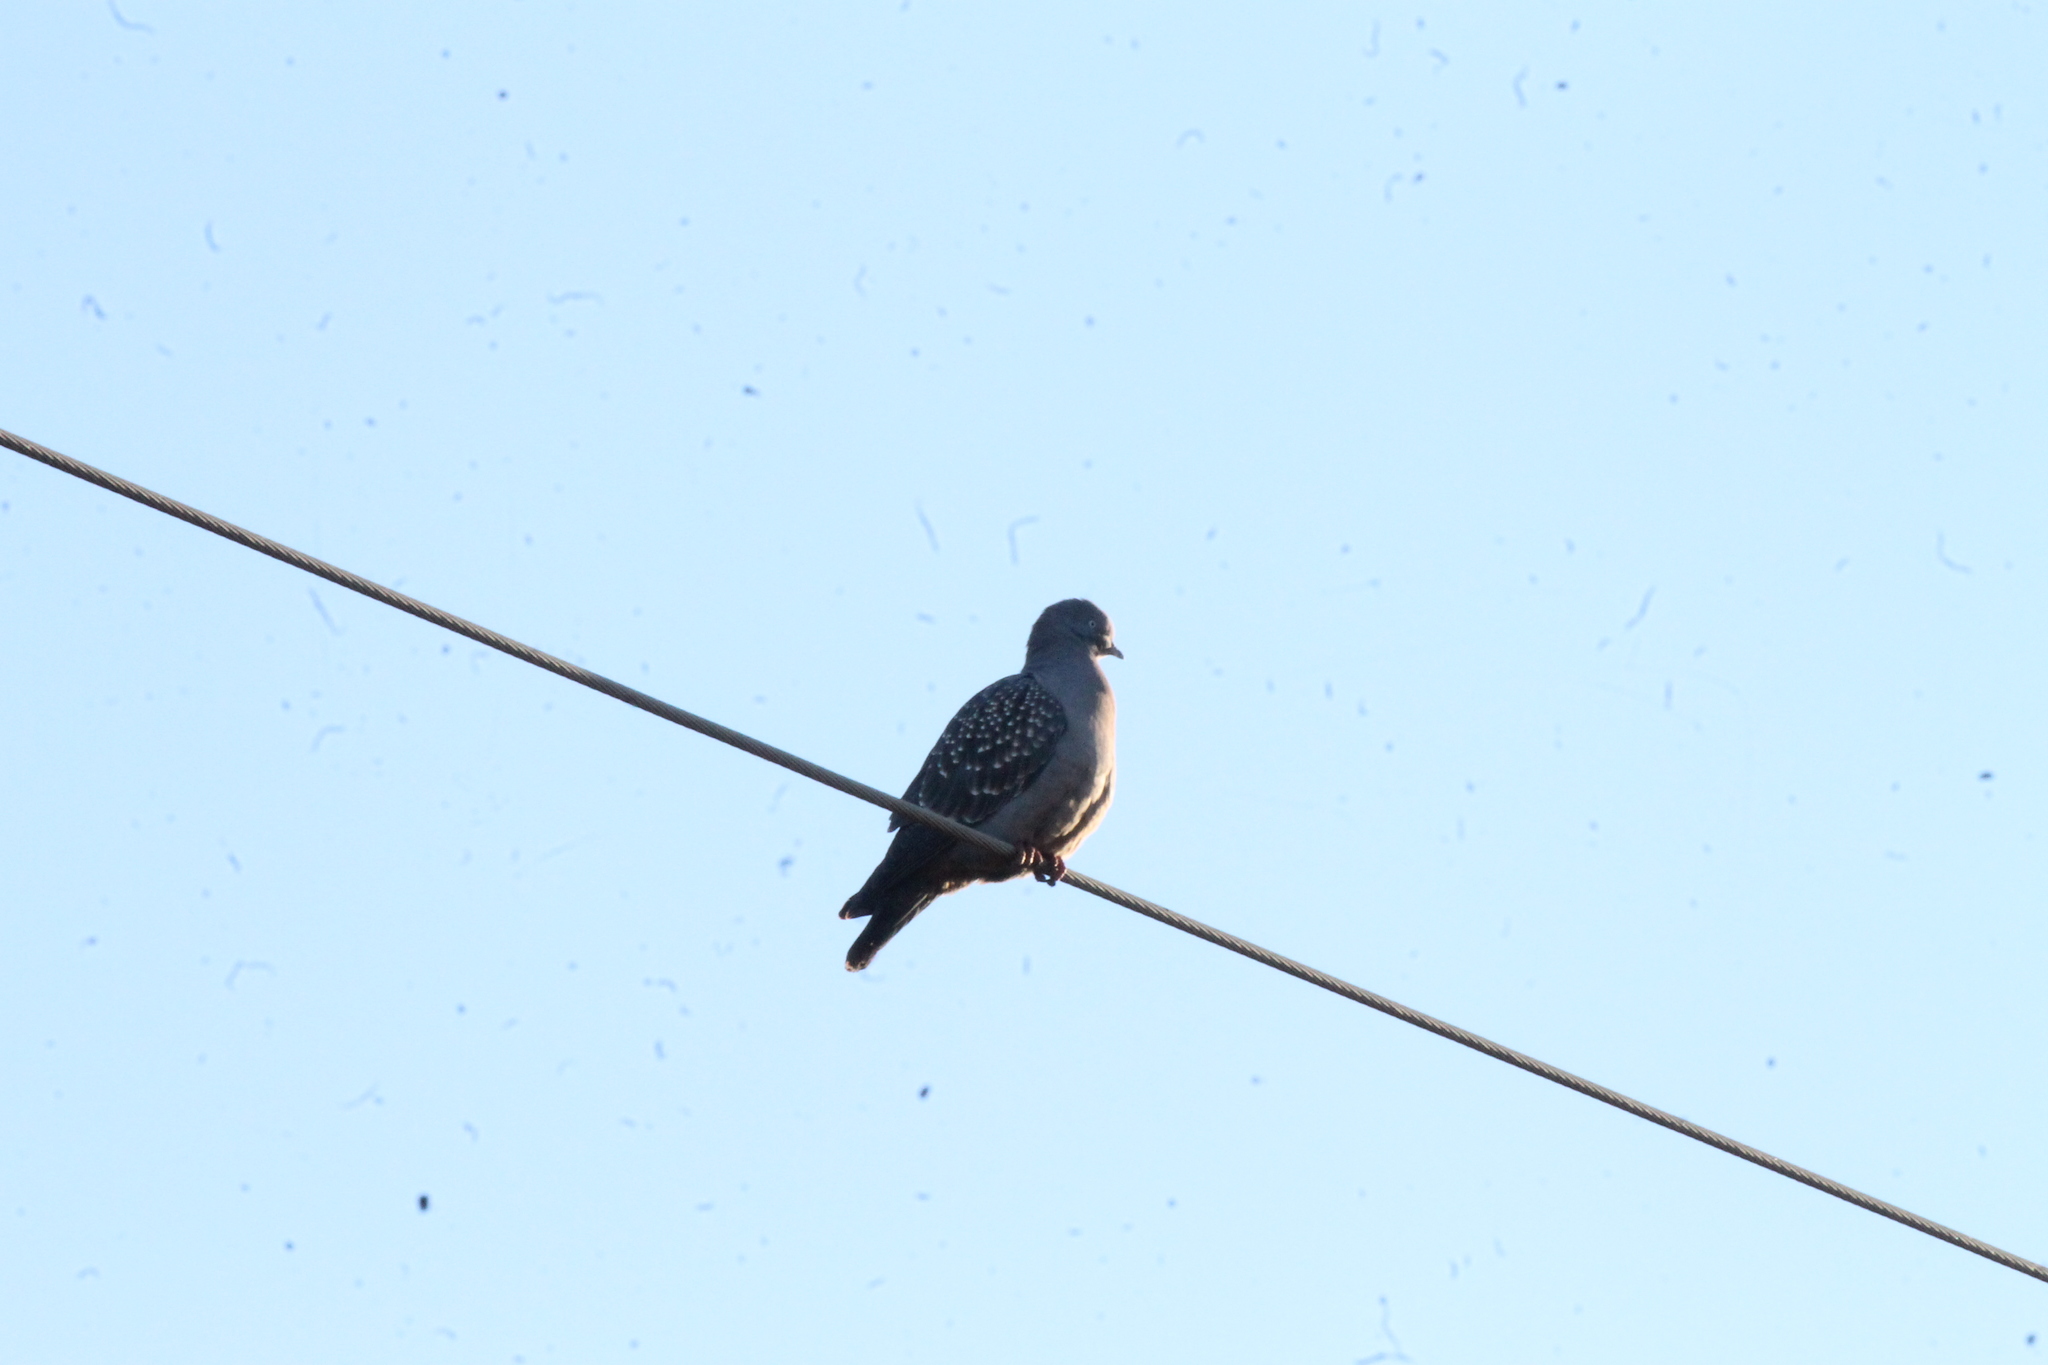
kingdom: Animalia
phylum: Chordata
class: Aves
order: Columbiformes
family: Columbidae
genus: Patagioenas
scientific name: Patagioenas maculosa
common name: Spot-winged pigeon
